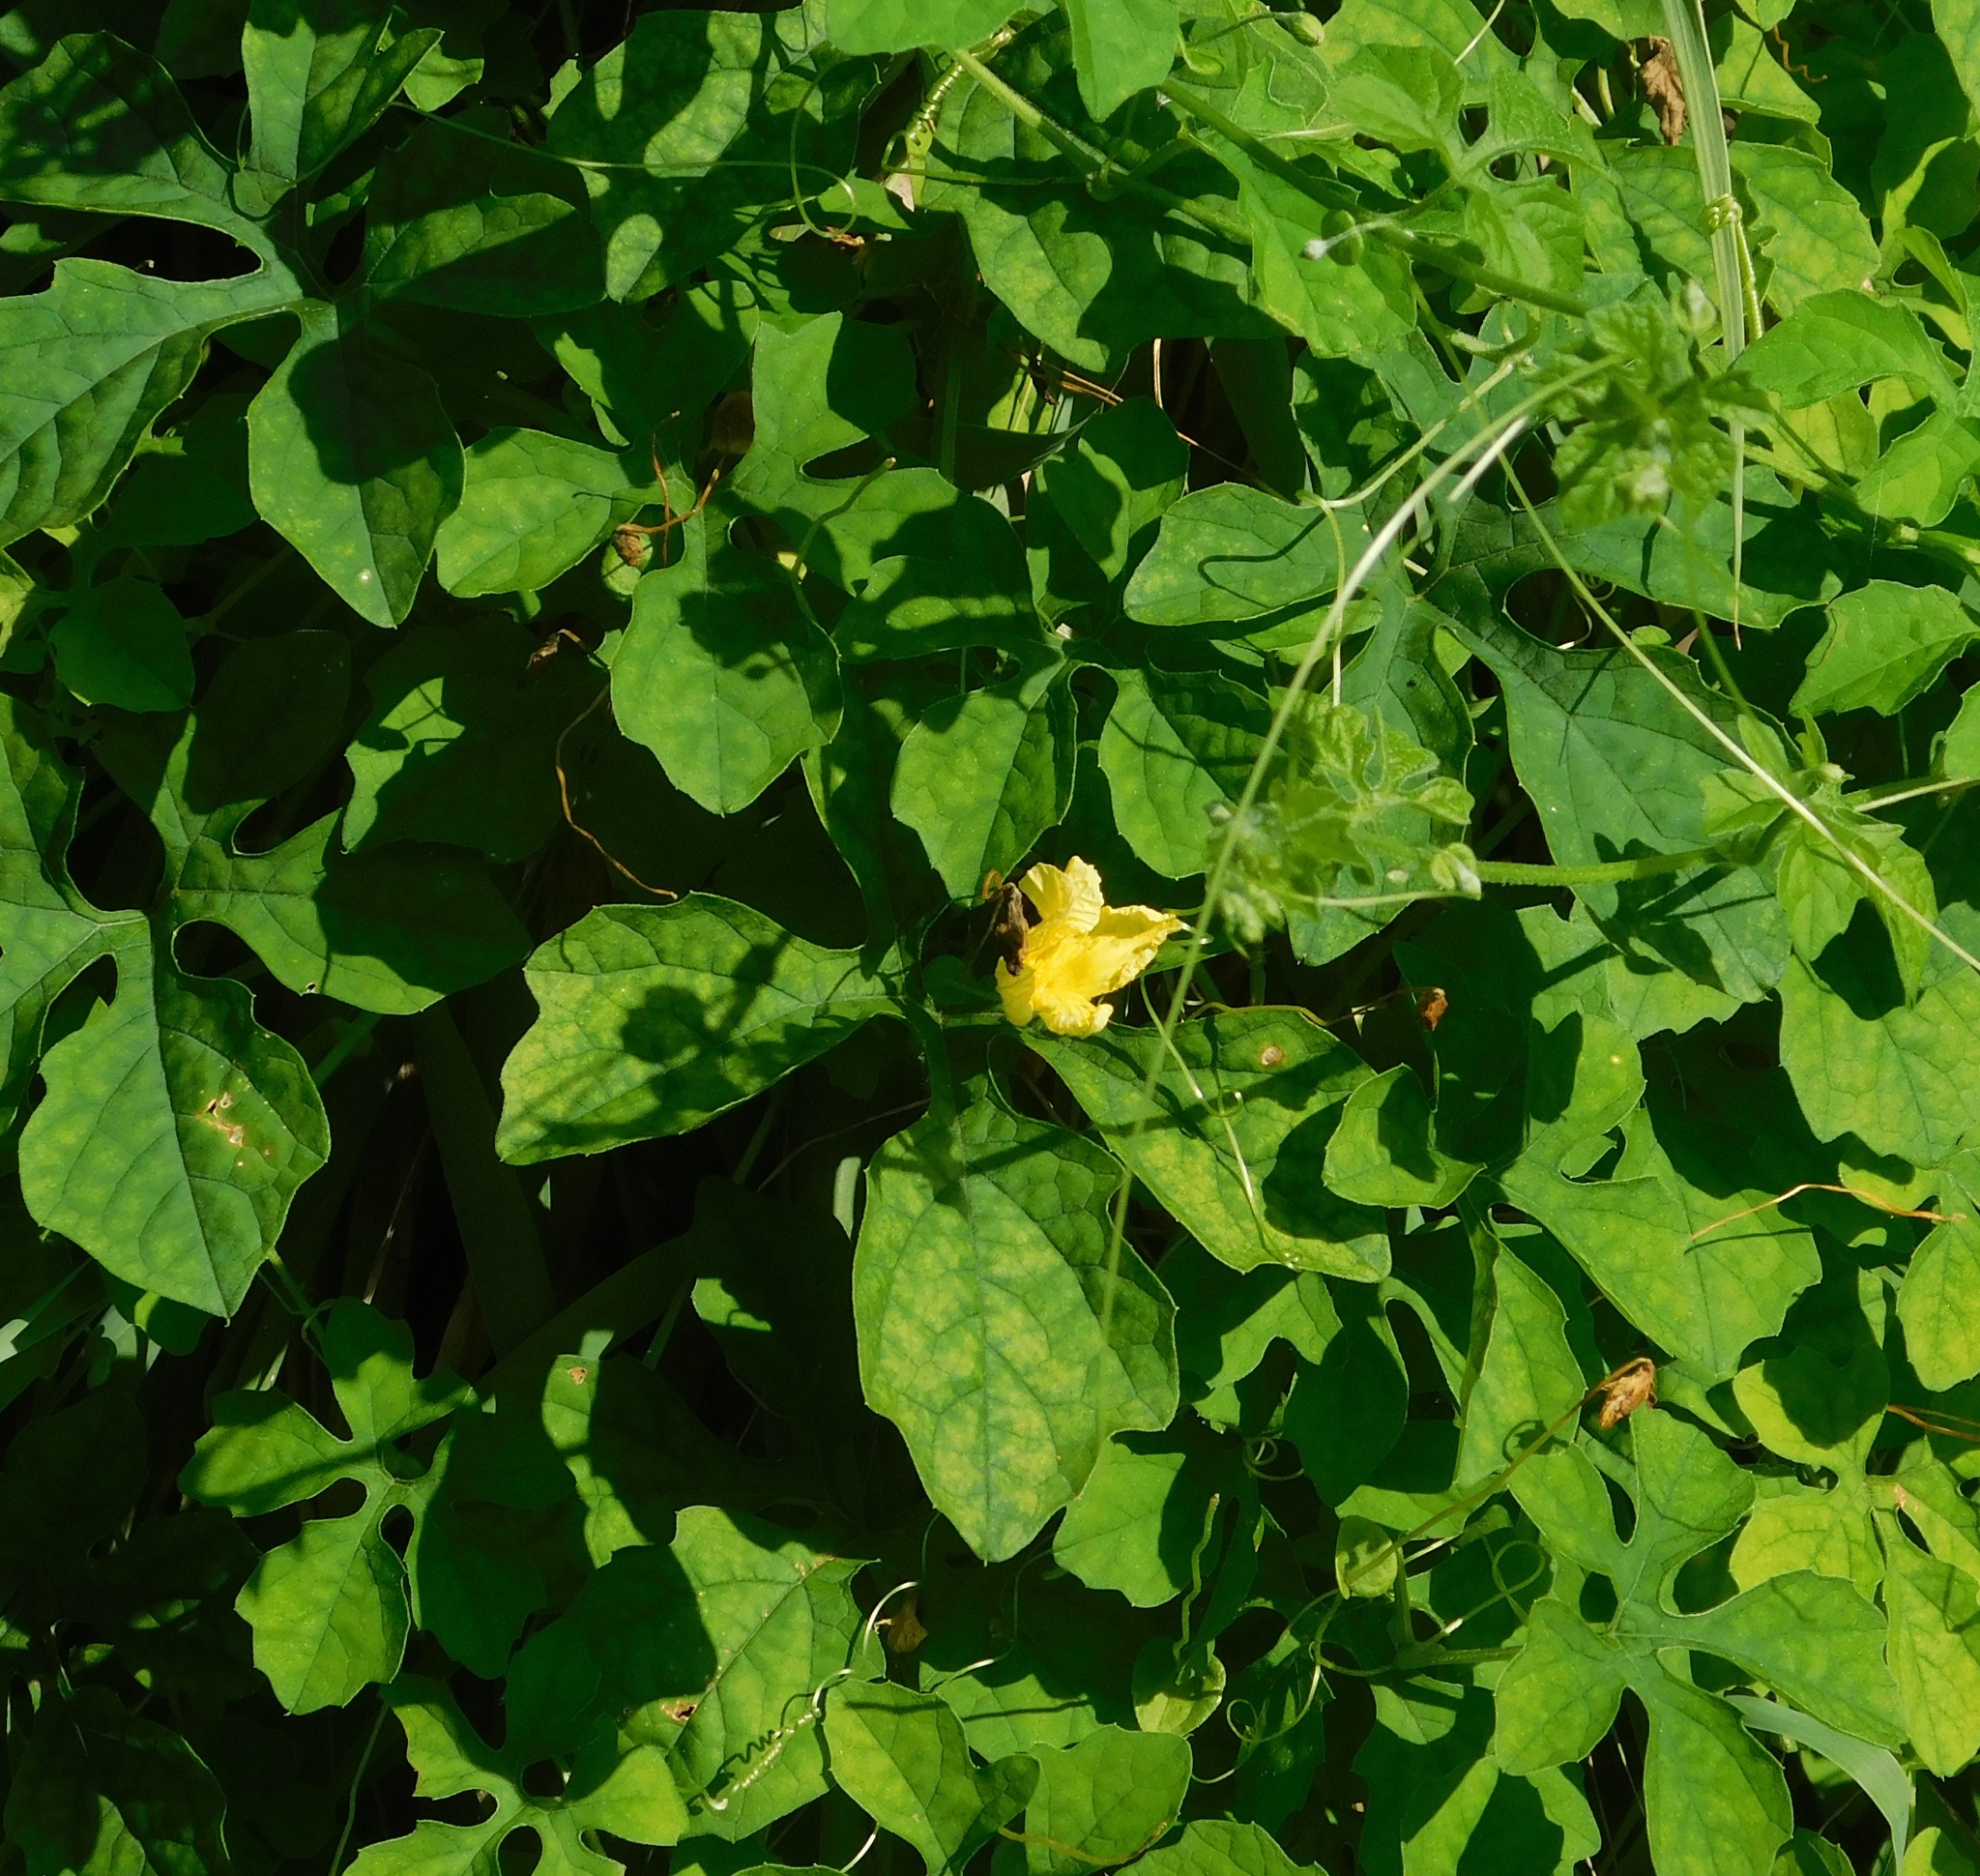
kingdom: Plantae
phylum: Tracheophyta
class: Magnoliopsida
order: Cucurbitales
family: Cucurbitaceae
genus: Momordica
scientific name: Momordica charantia
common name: Balsampear
